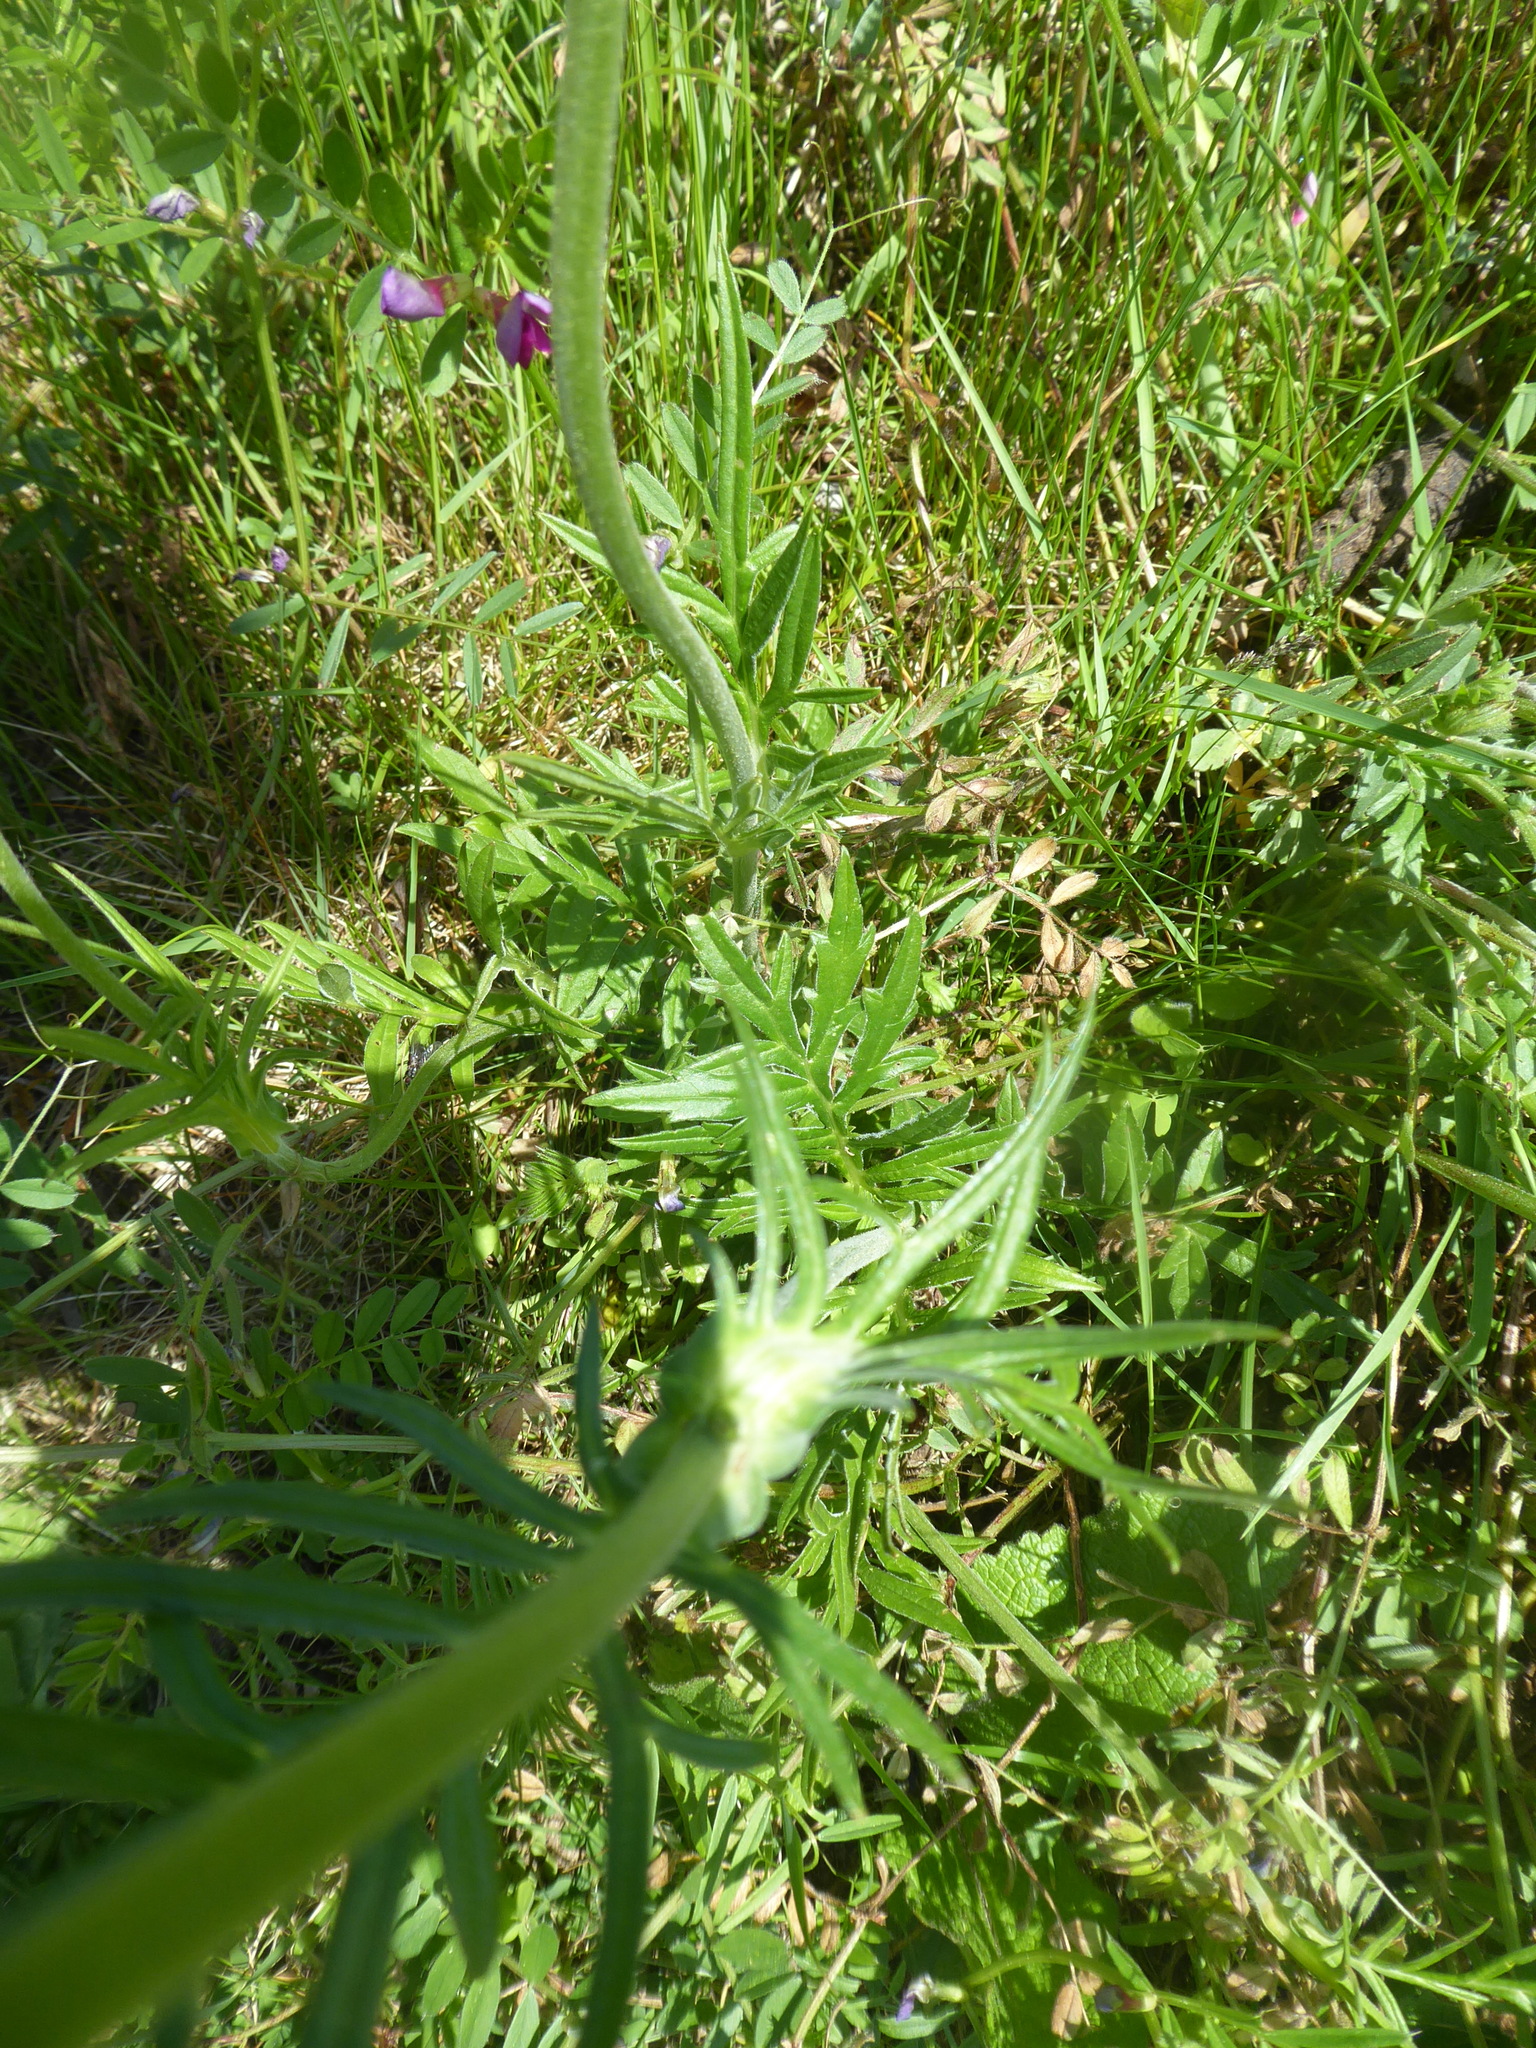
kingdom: Plantae
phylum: Tracheophyta
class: Magnoliopsida
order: Dipsacales
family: Caprifoliaceae
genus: Knautia
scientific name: Knautia arvensis
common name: Field scabiosa
